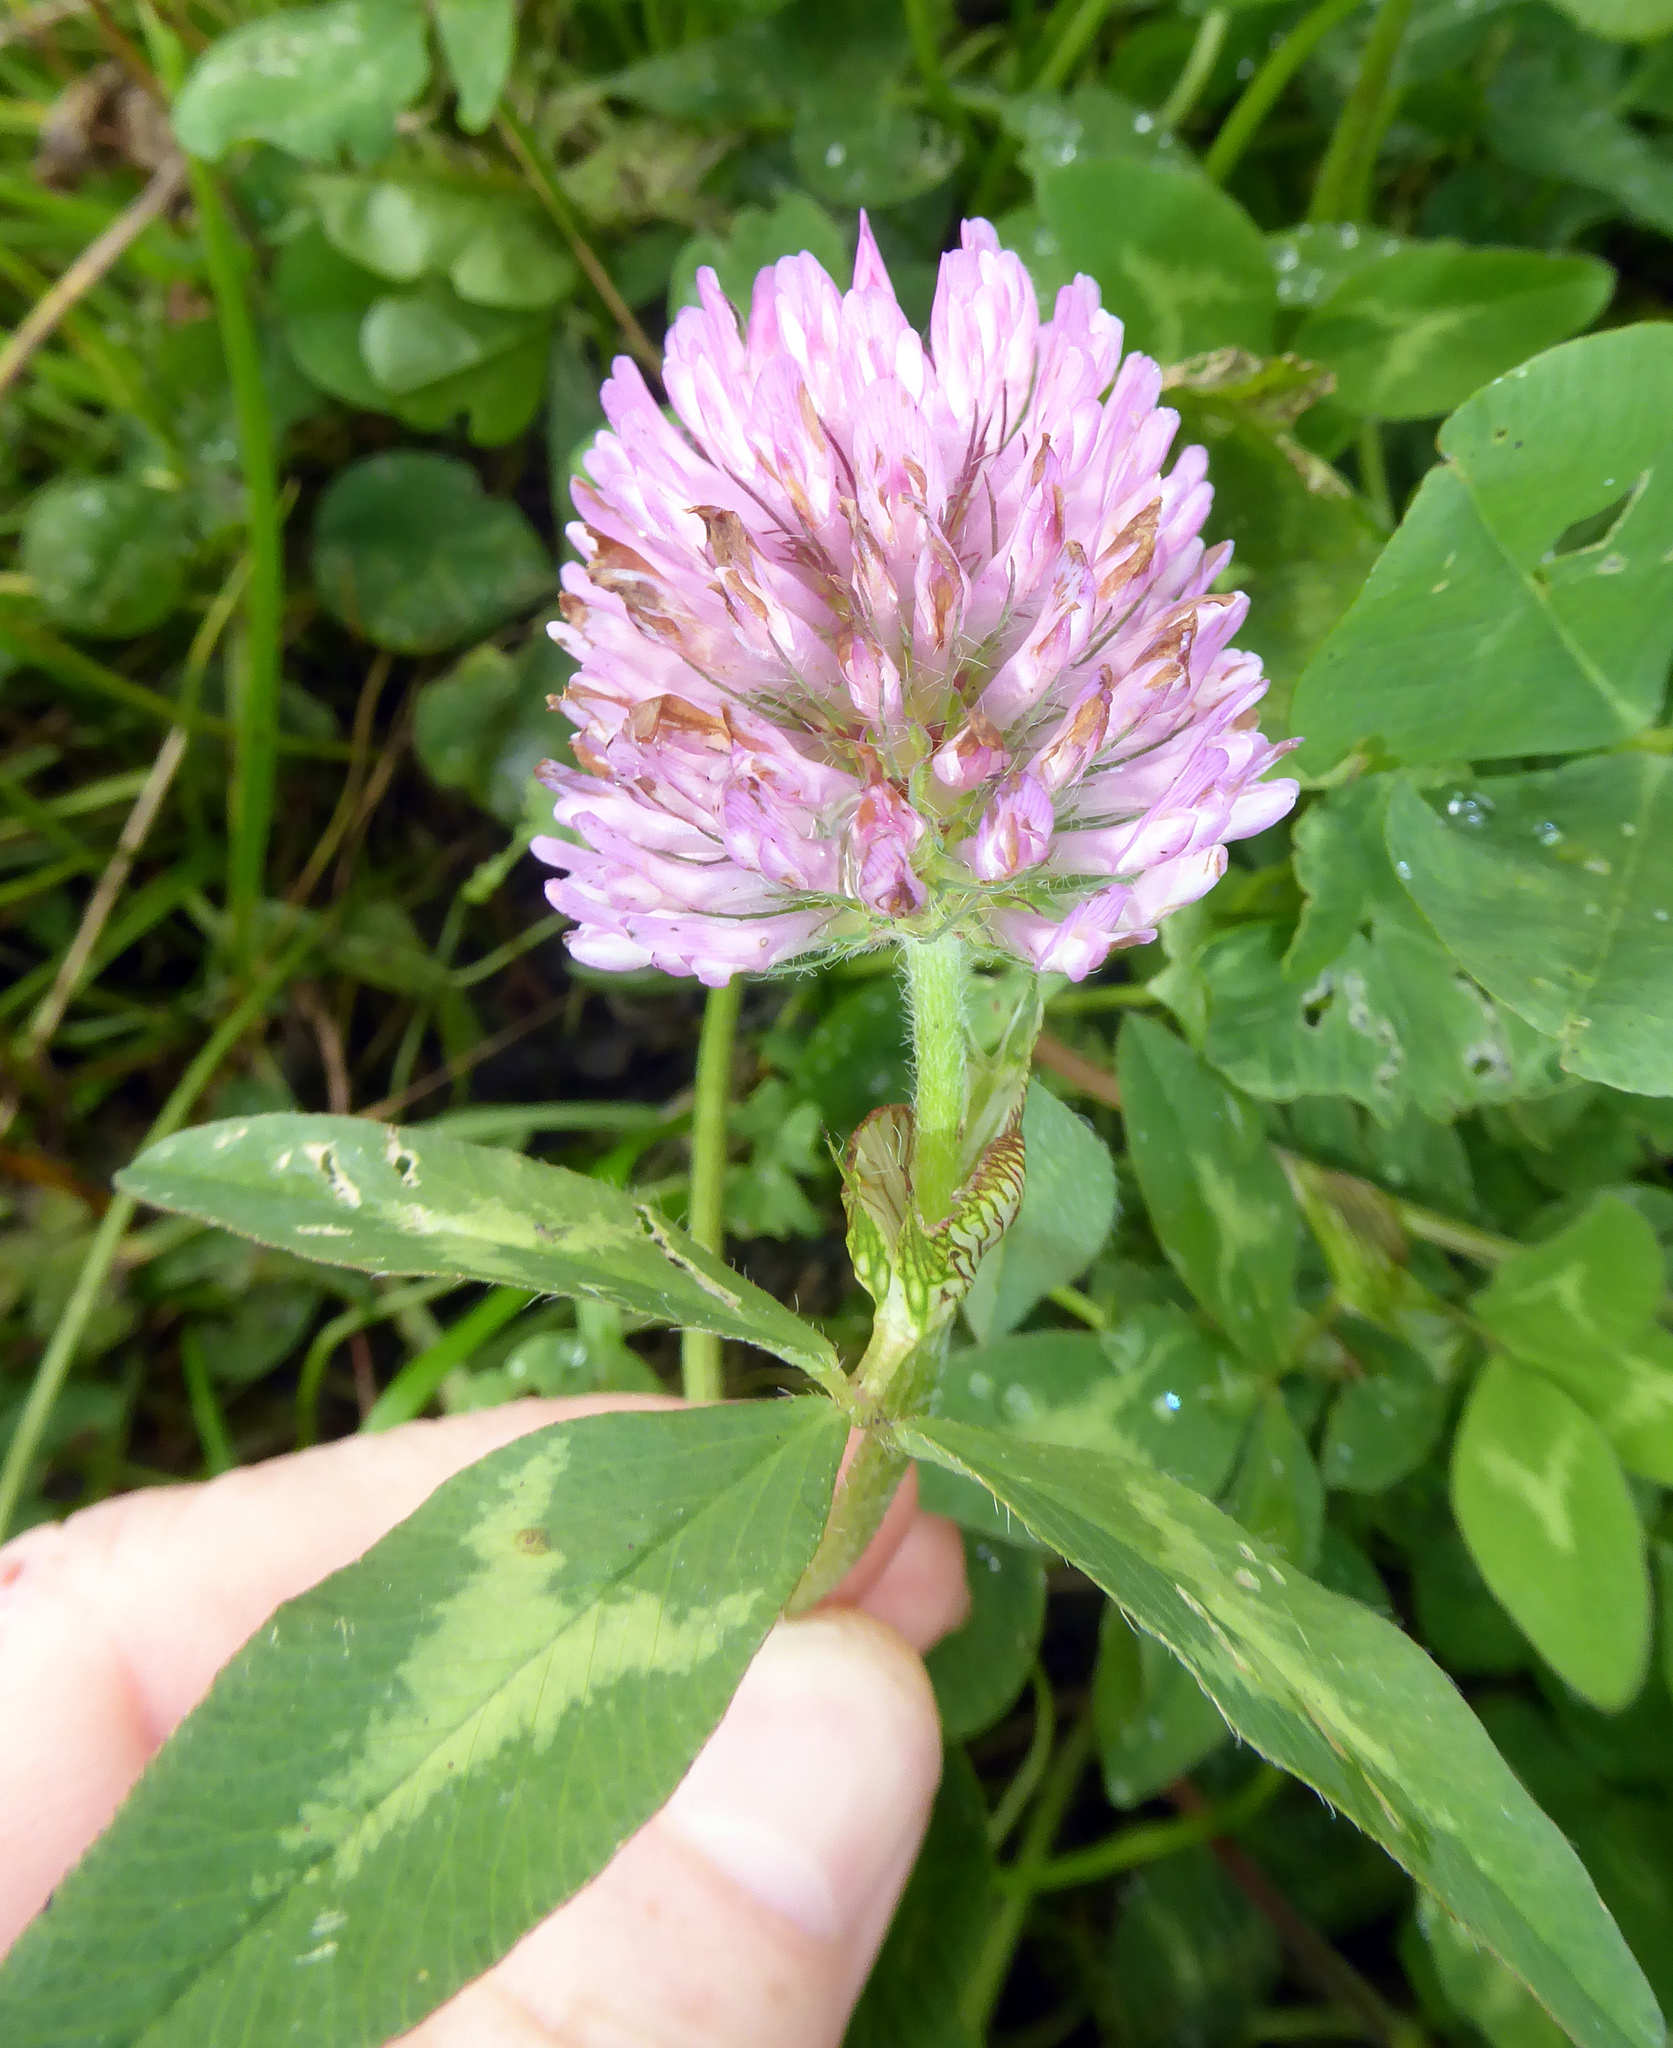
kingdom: Plantae
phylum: Tracheophyta
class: Magnoliopsida
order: Fabales
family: Fabaceae
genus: Trifolium
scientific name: Trifolium pratense
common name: Red clover
